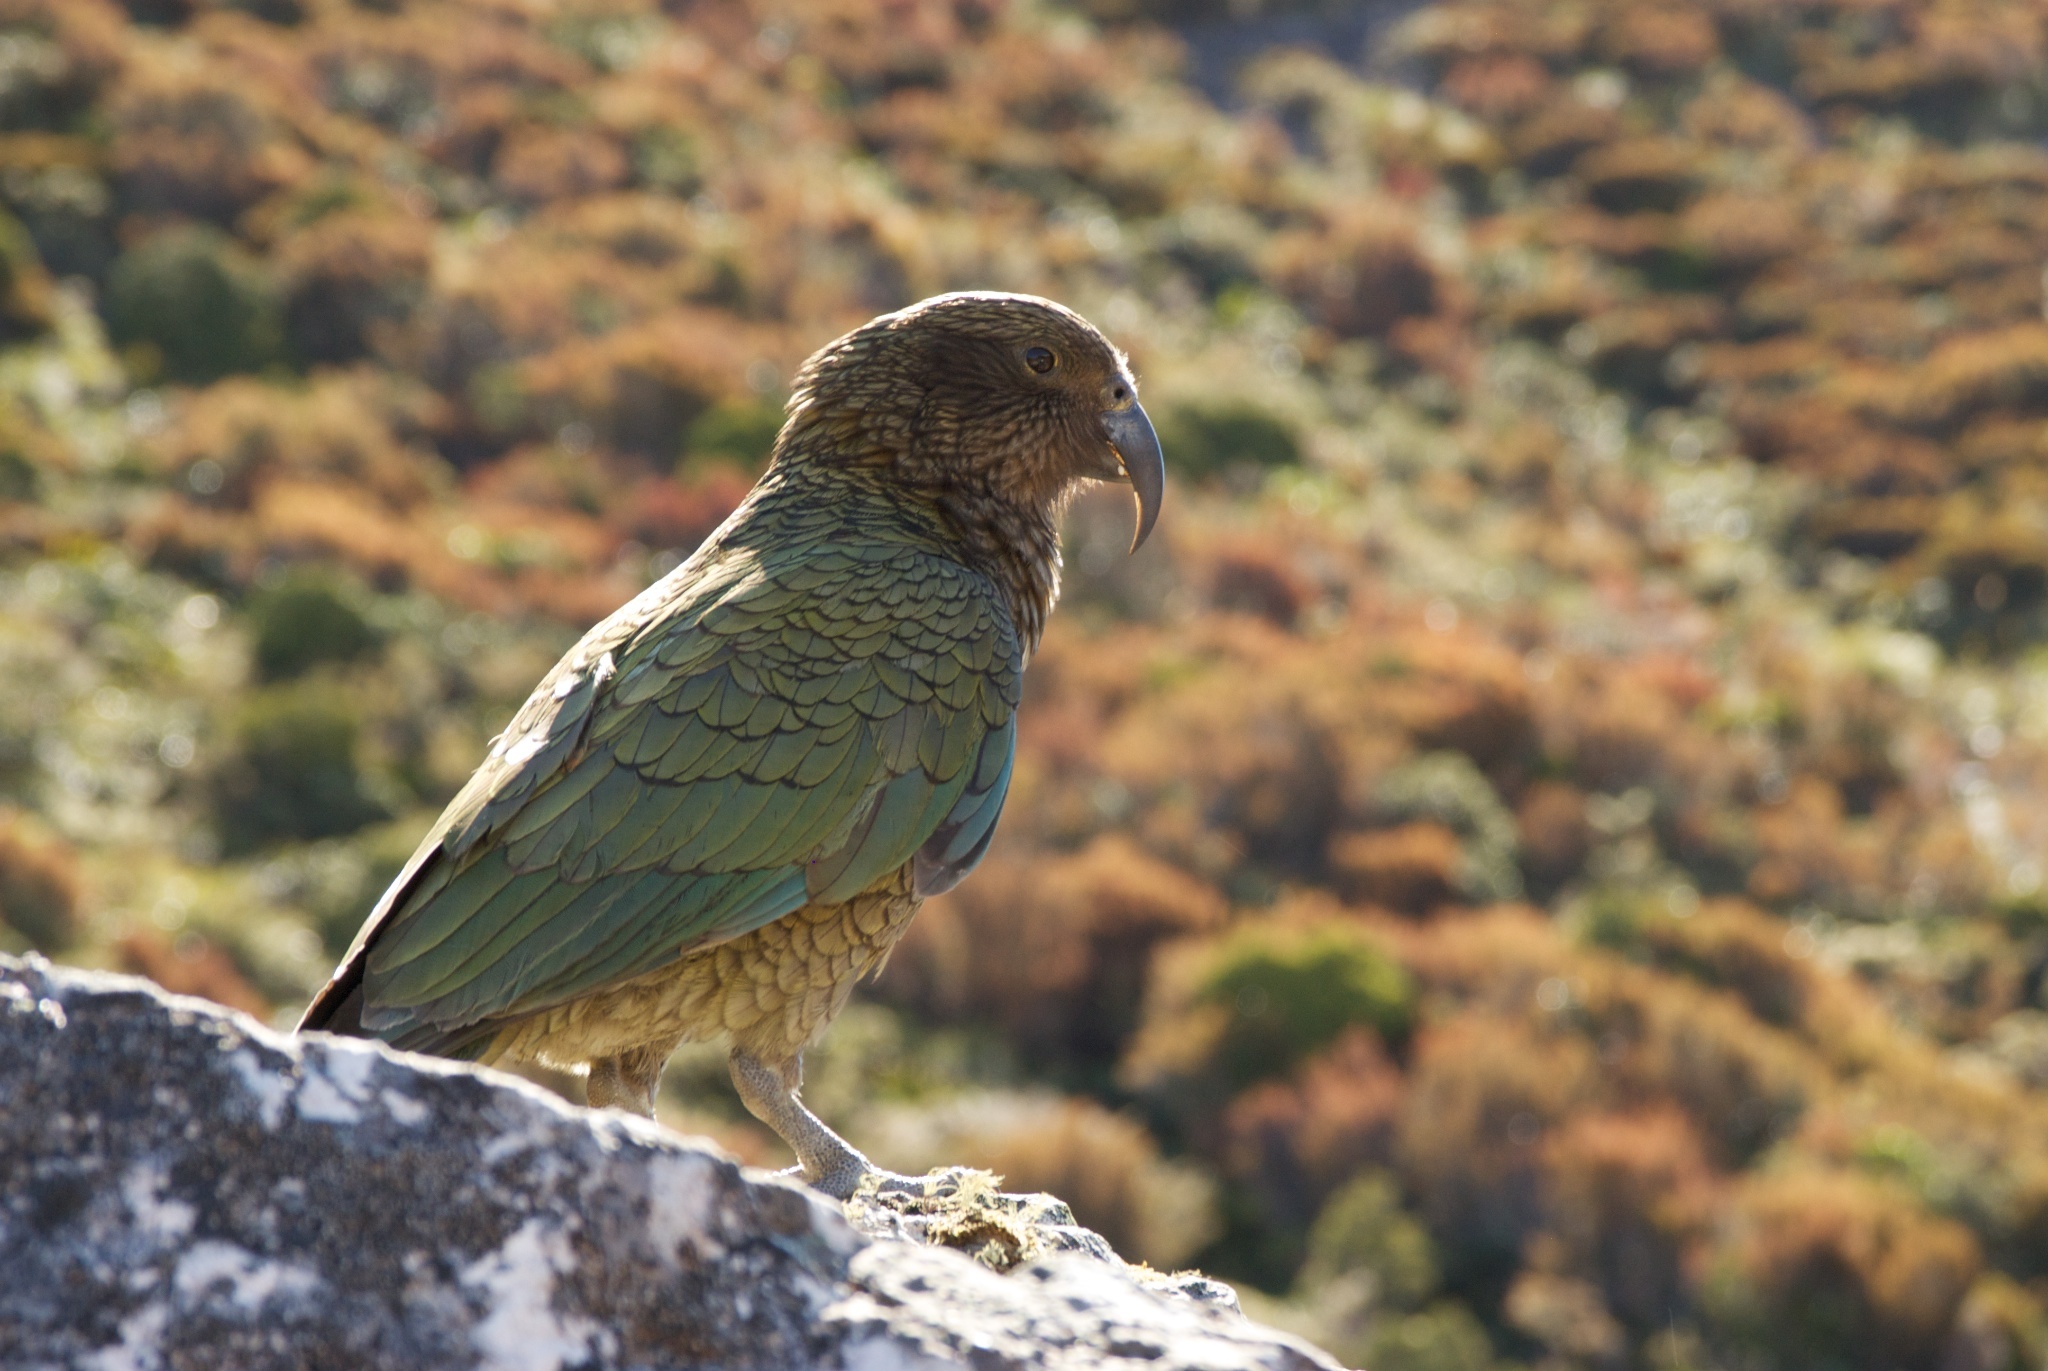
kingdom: Animalia
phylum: Chordata
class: Aves
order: Psittaciformes
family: Psittacidae
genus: Nestor
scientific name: Nestor notabilis
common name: Kea
